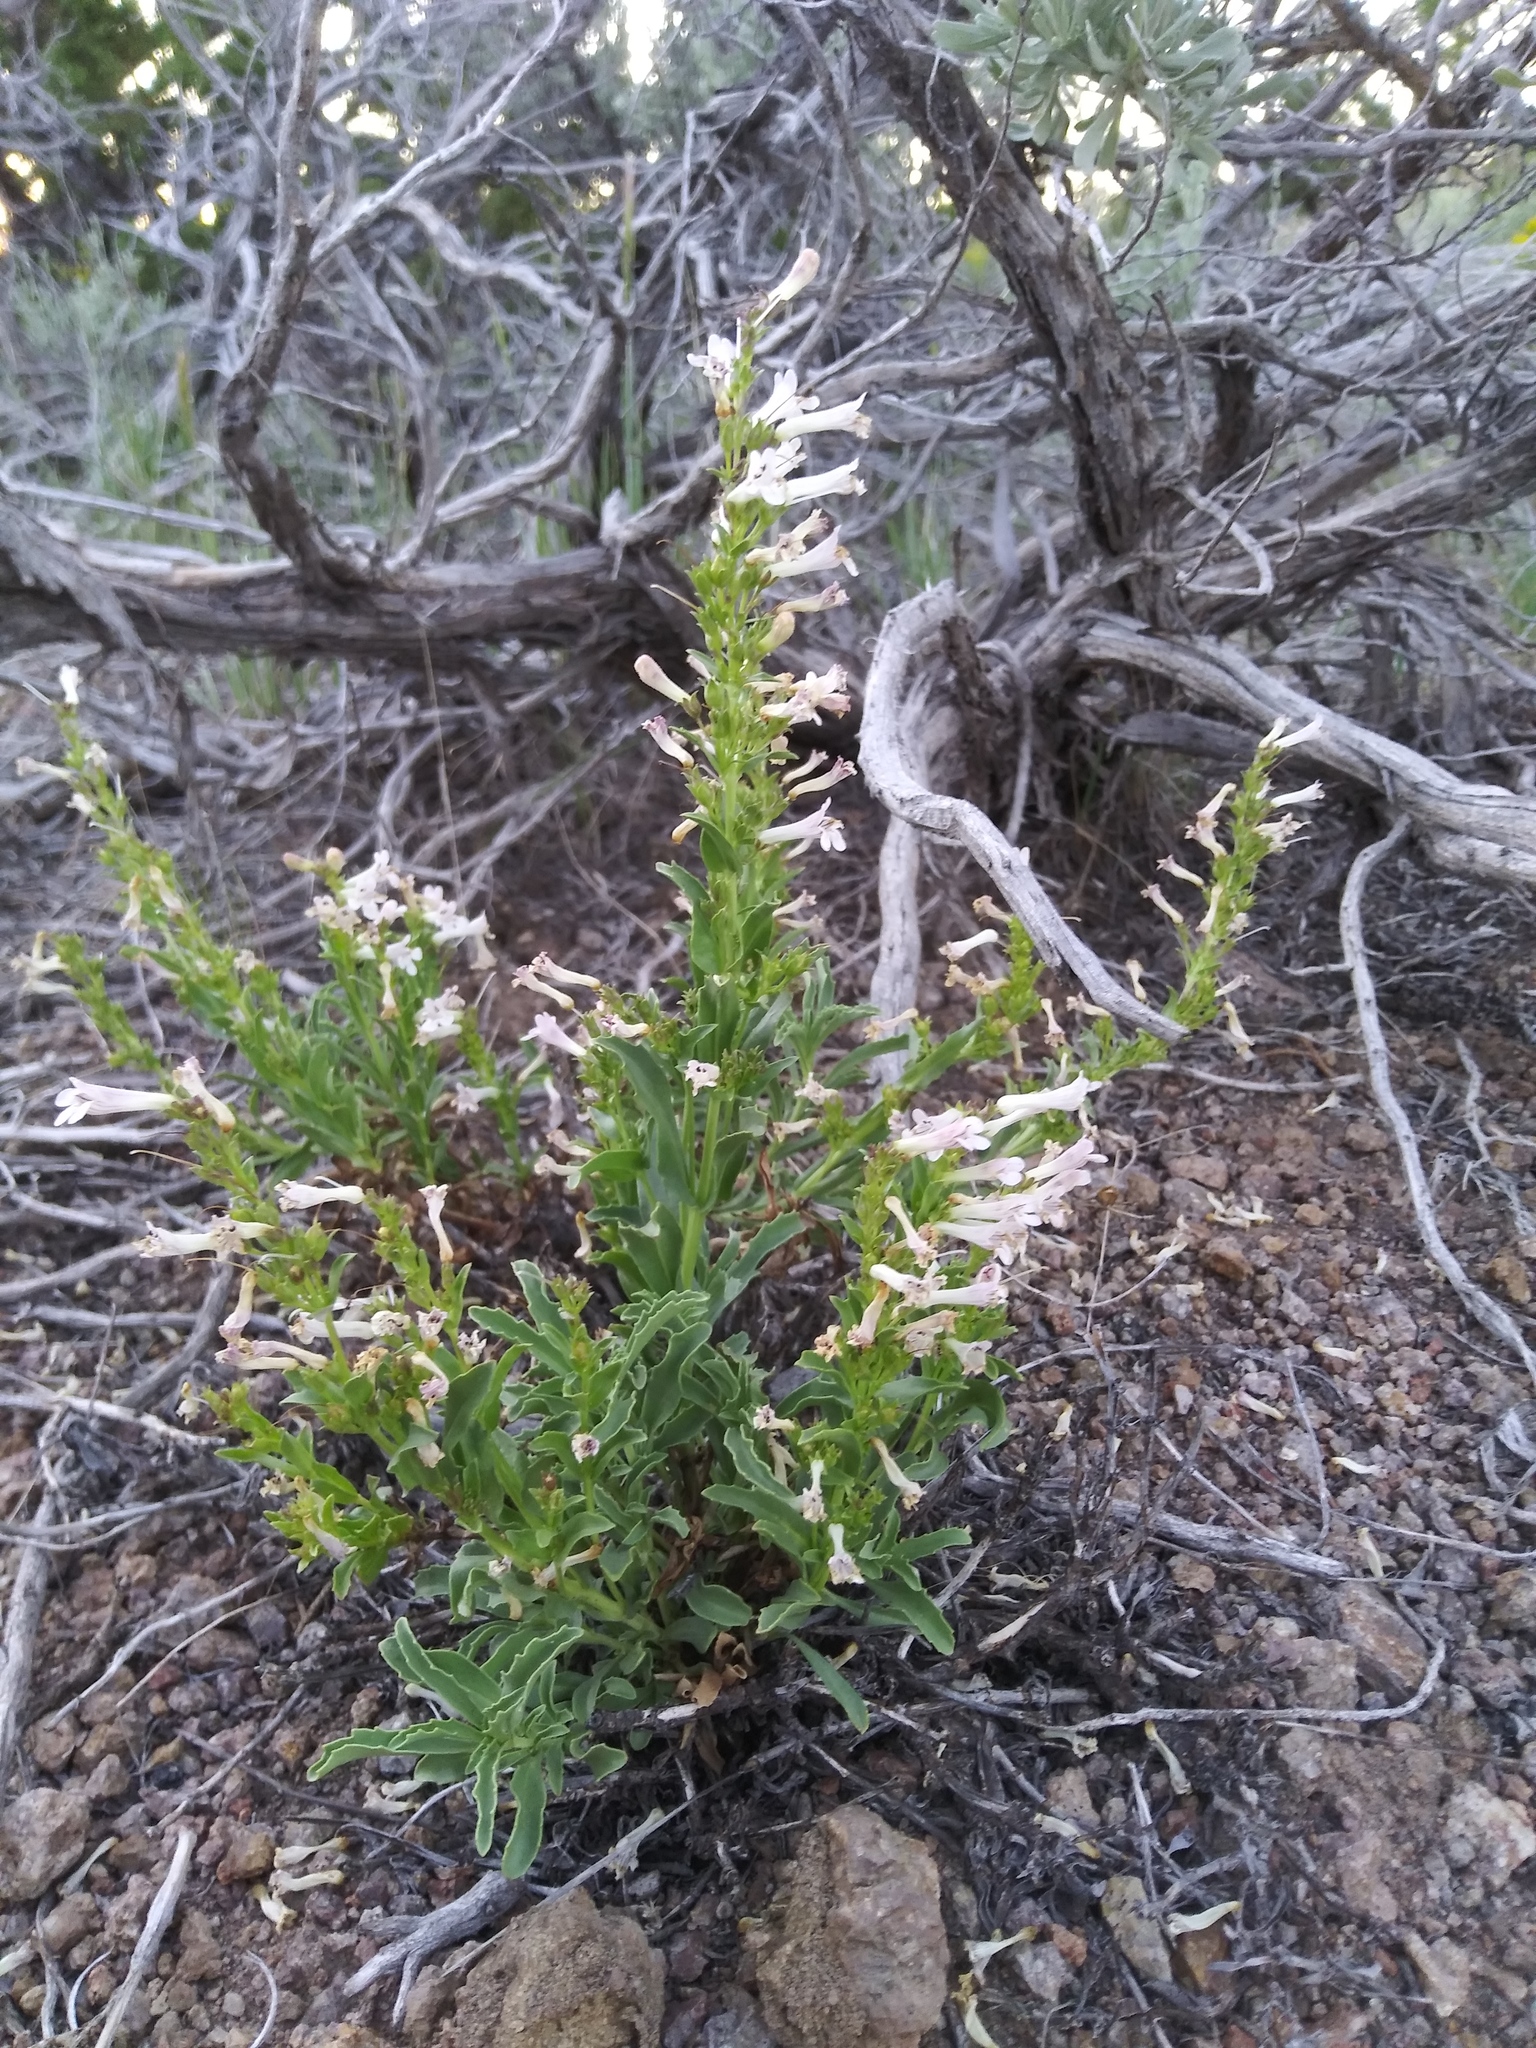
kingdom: Plantae
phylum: Tracheophyta
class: Magnoliopsida
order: Lamiales
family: Plantaginaceae
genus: Penstemon
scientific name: Penstemon deustus
